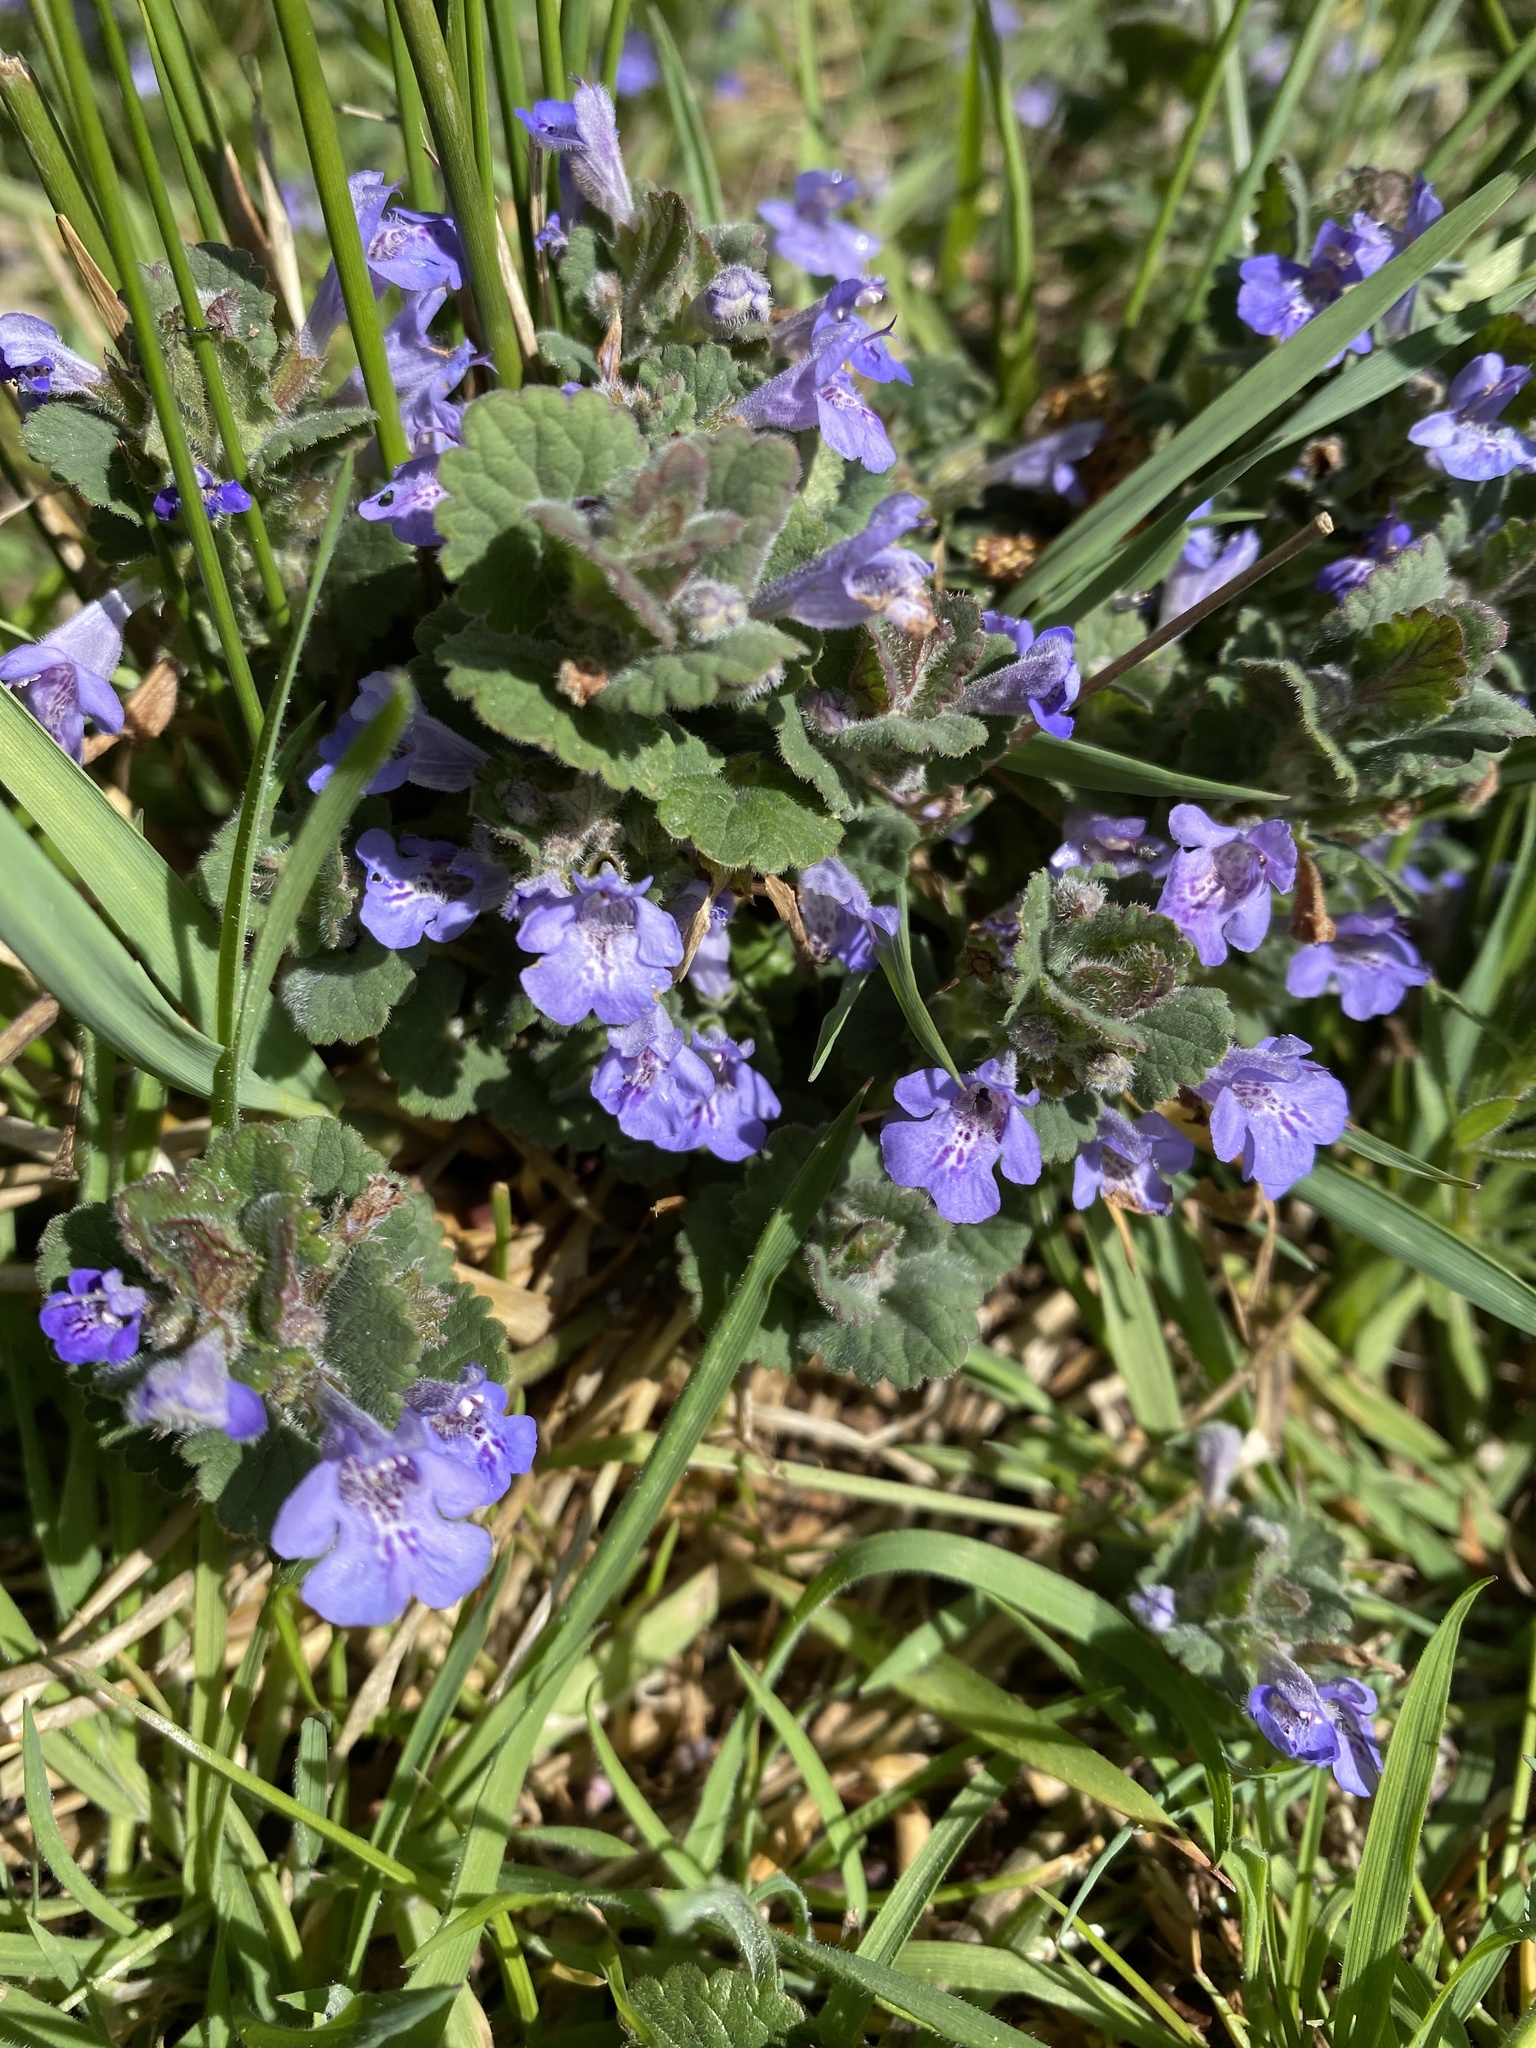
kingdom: Plantae
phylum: Tracheophyta
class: Magnoliopsida
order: Lamiales
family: Lamiaceae
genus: Glechoma
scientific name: Glechoma hederacea
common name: Ground ivy
